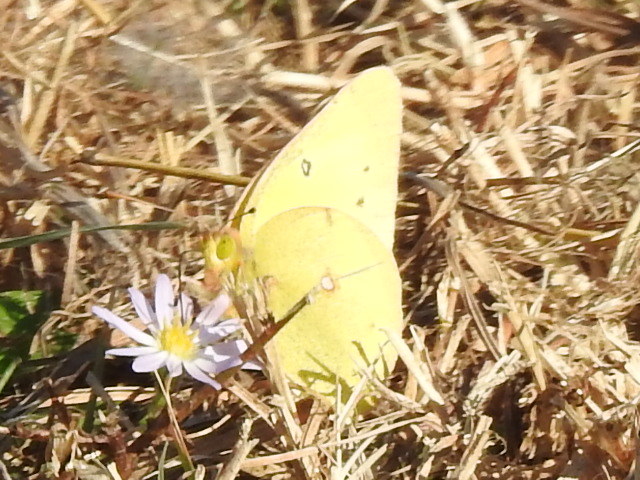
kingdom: Animalia
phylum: Arthropoda
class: Insecta
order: Lepidoptera
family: Pieridae
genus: Colias
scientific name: Colias eurytheme
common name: Alfalfa butterfly
